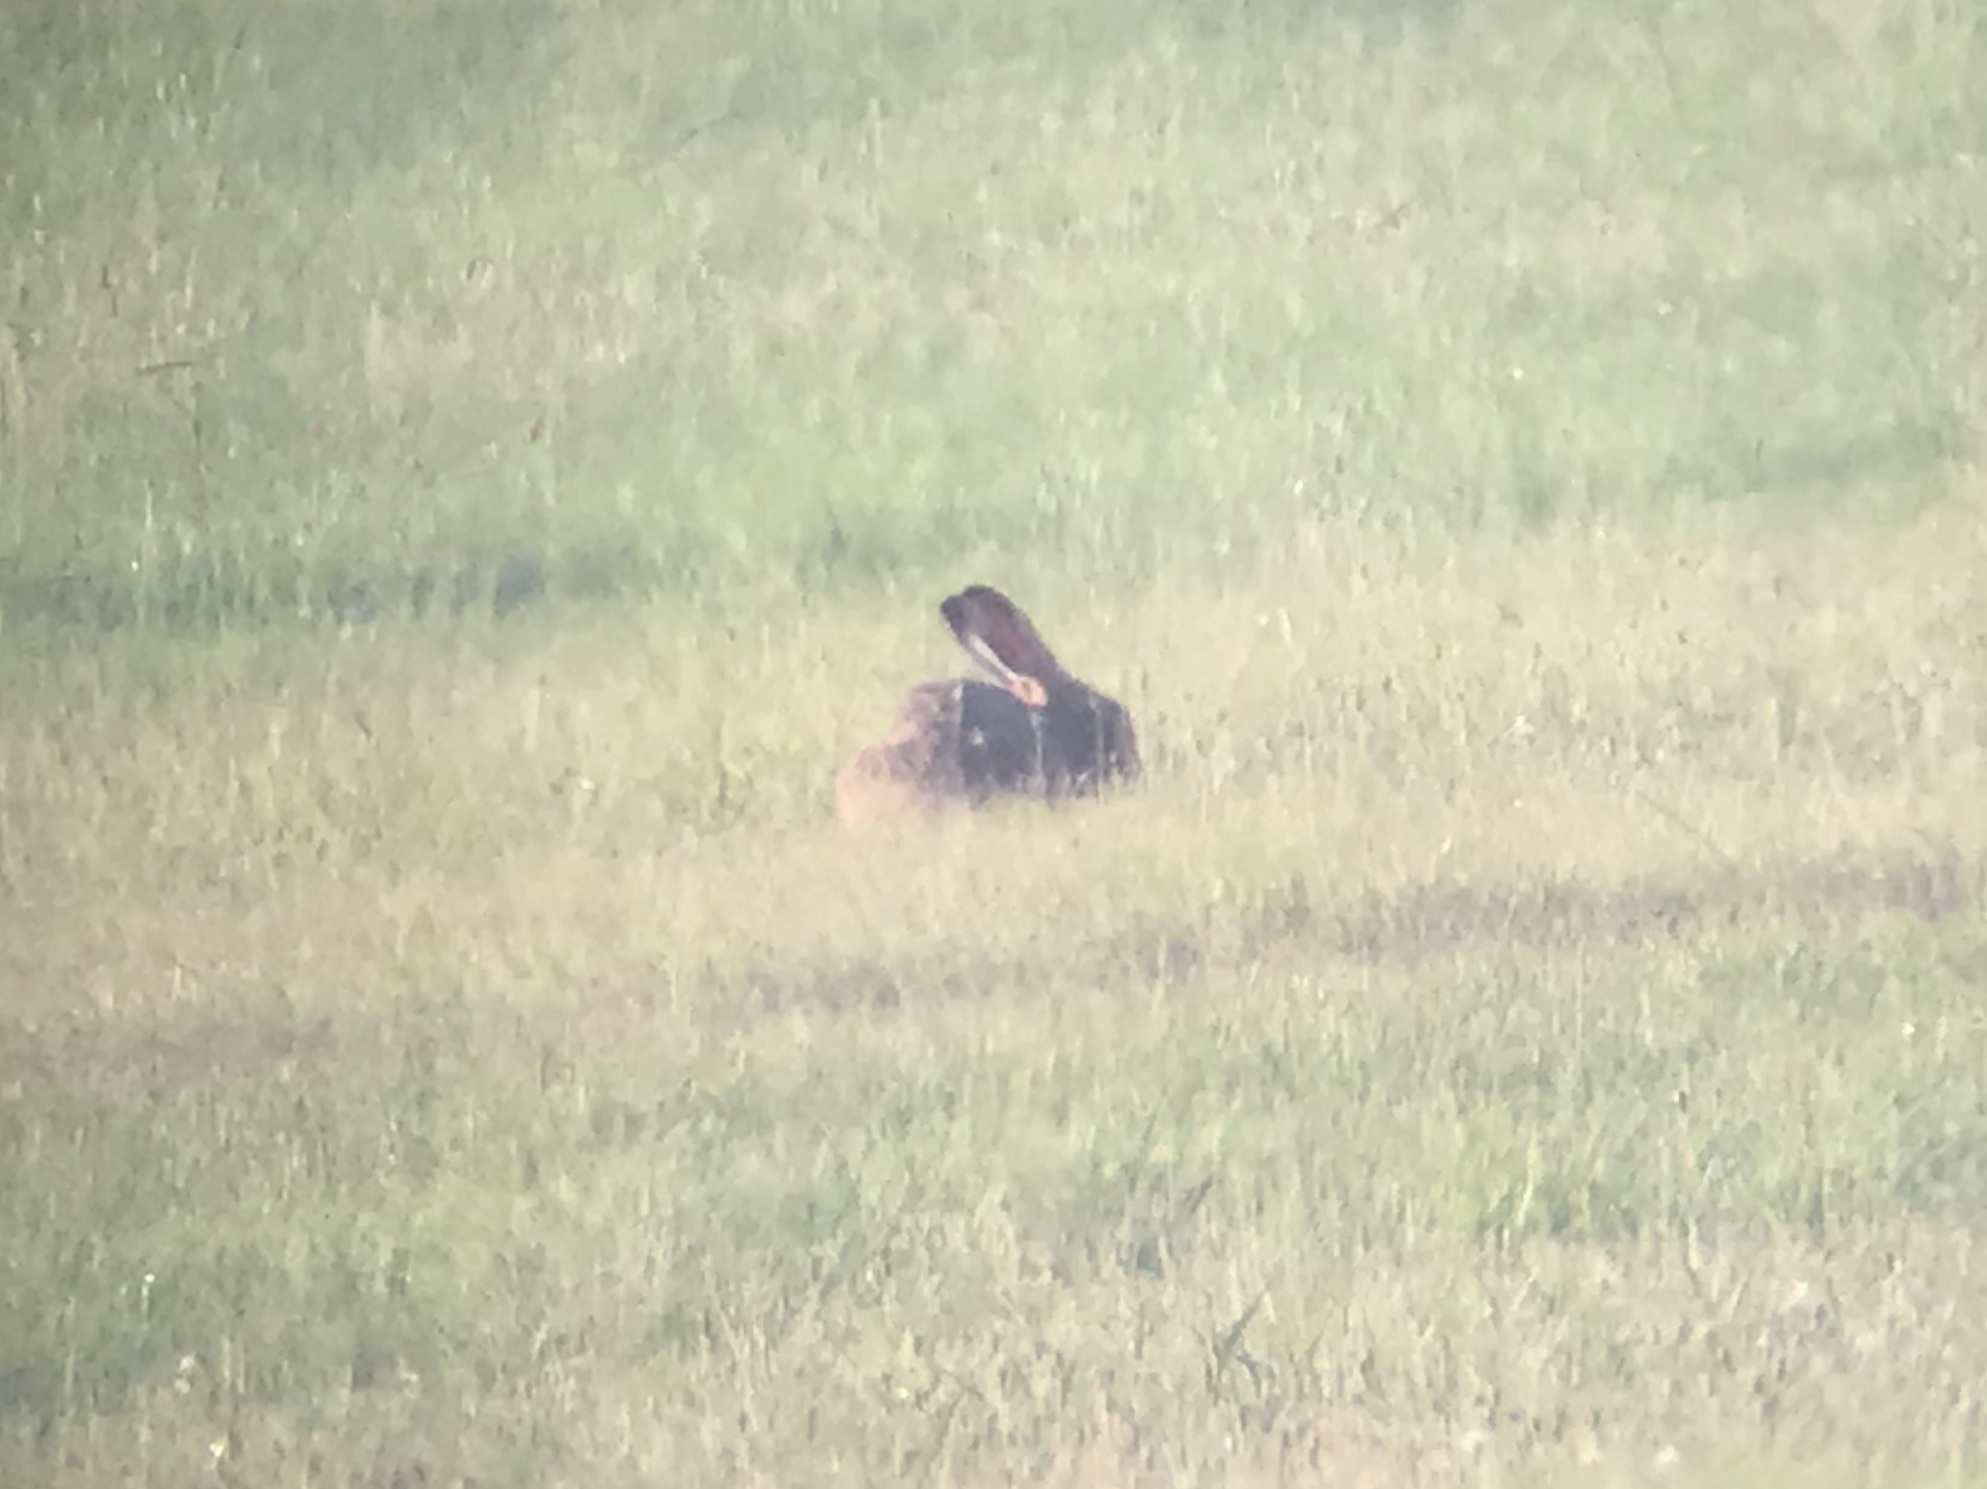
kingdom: Animalia
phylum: Chordata
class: Mammalia
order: Lagomorpha
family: Leporidae
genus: Lepus
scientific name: Lepus europaeus
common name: European hare
